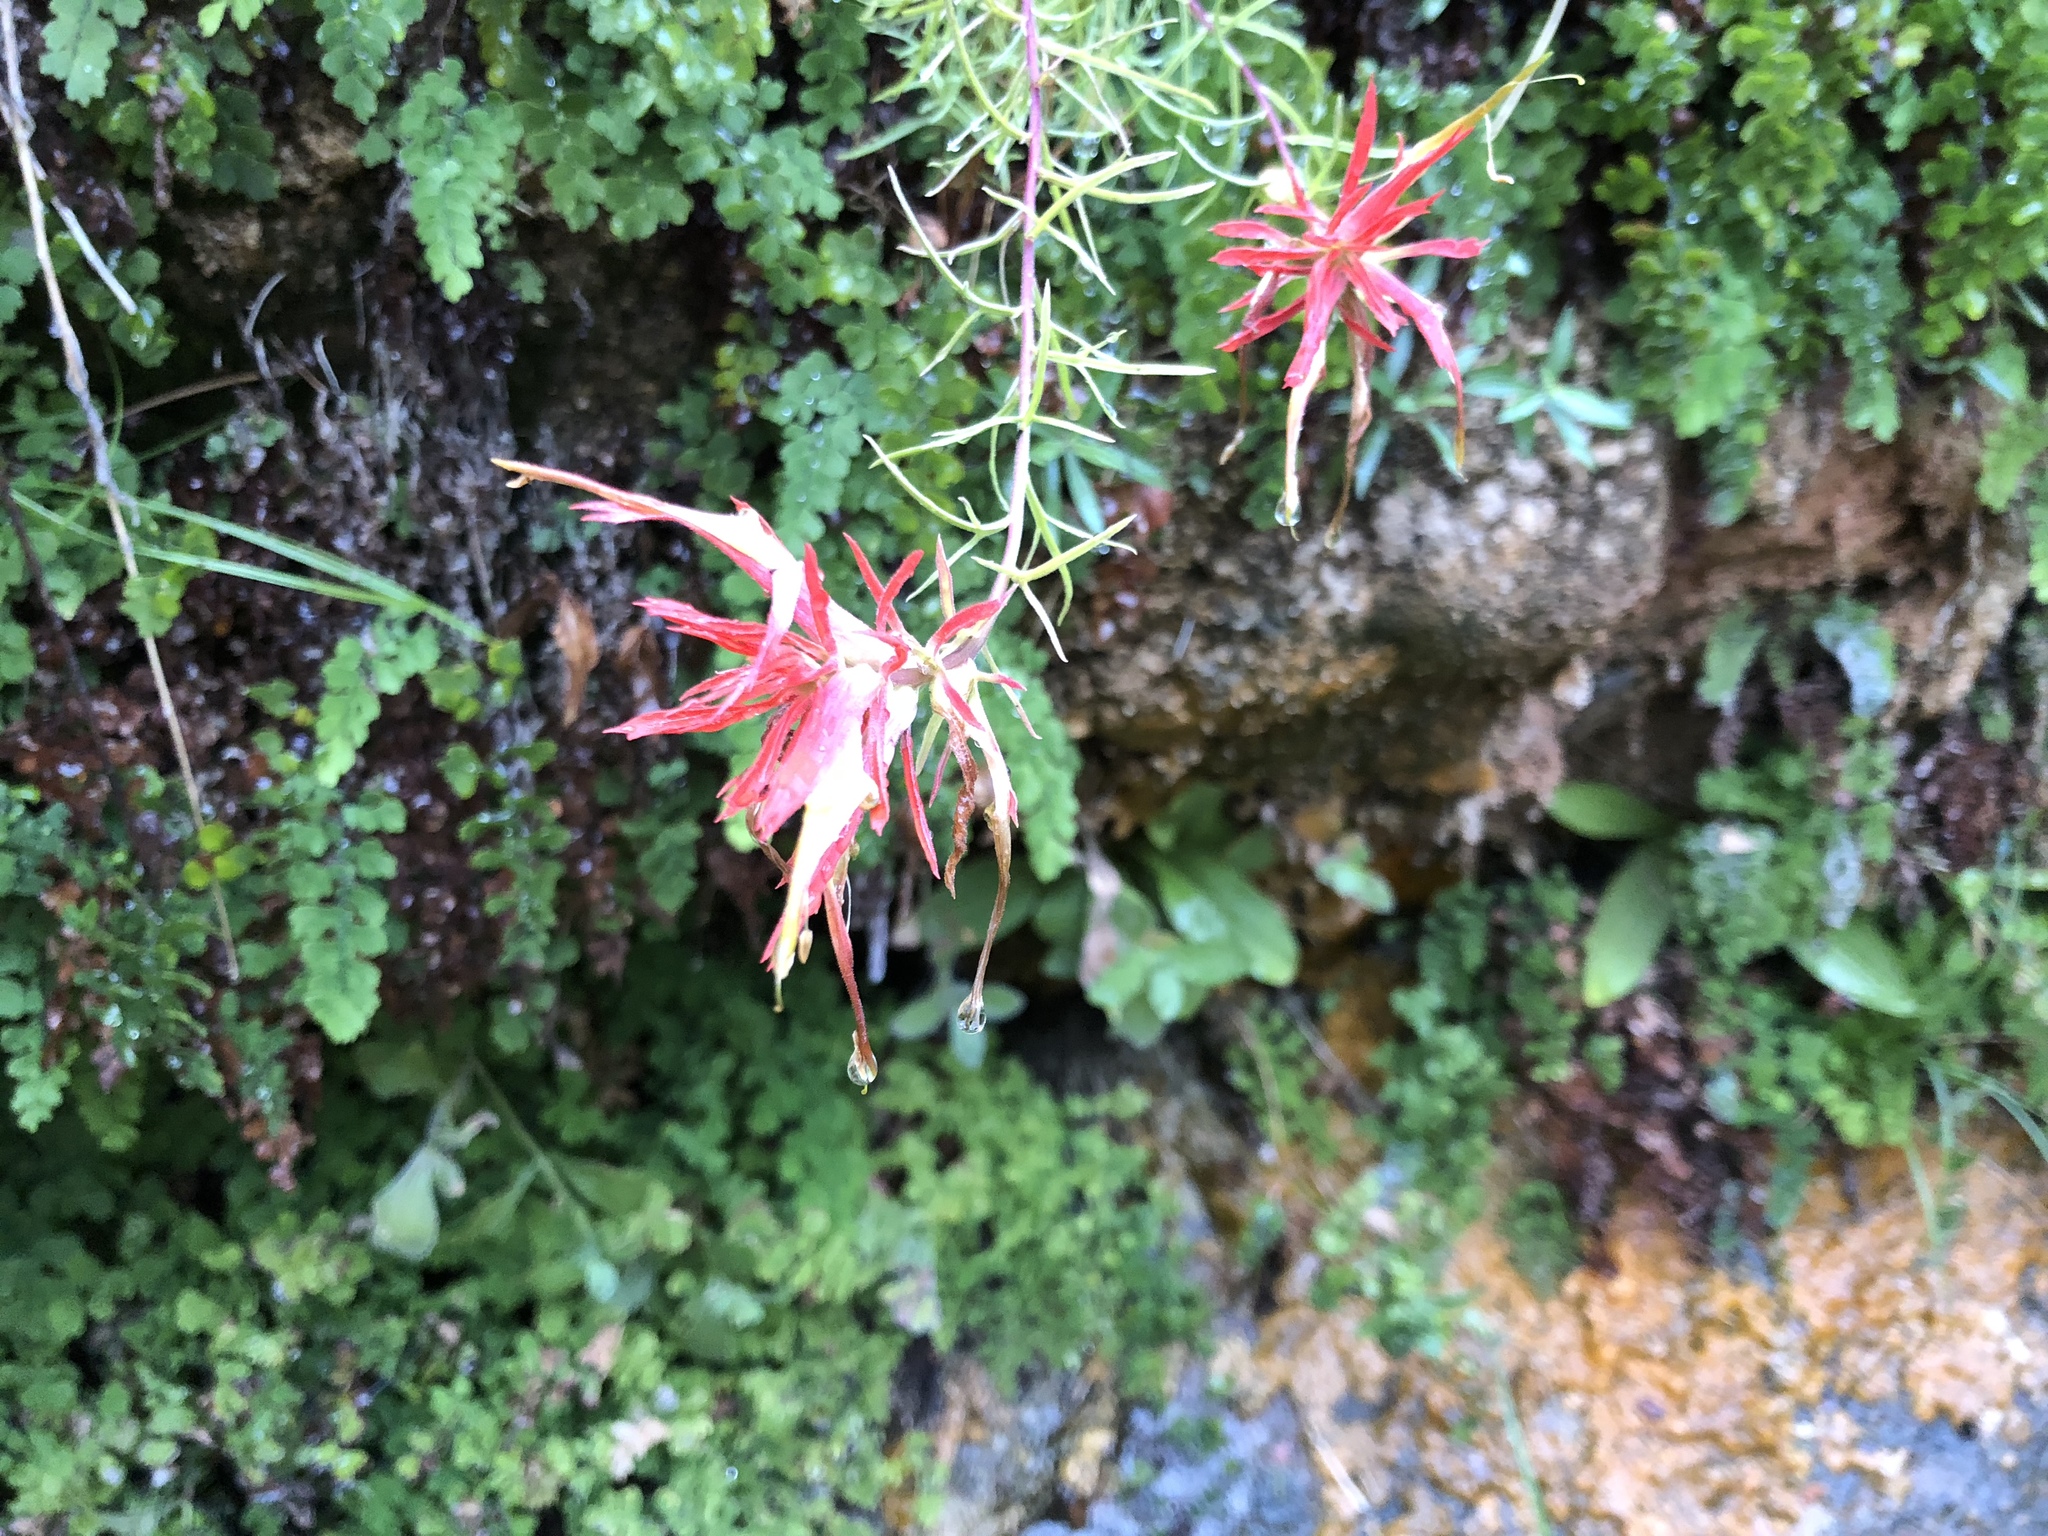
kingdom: Plantae
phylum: Tracheophyta
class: Magnoliopsida
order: Lamiales
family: Orobanchaceae
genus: Castilleja
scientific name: Castilleja linariifolia
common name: Wyoming paintbrush
